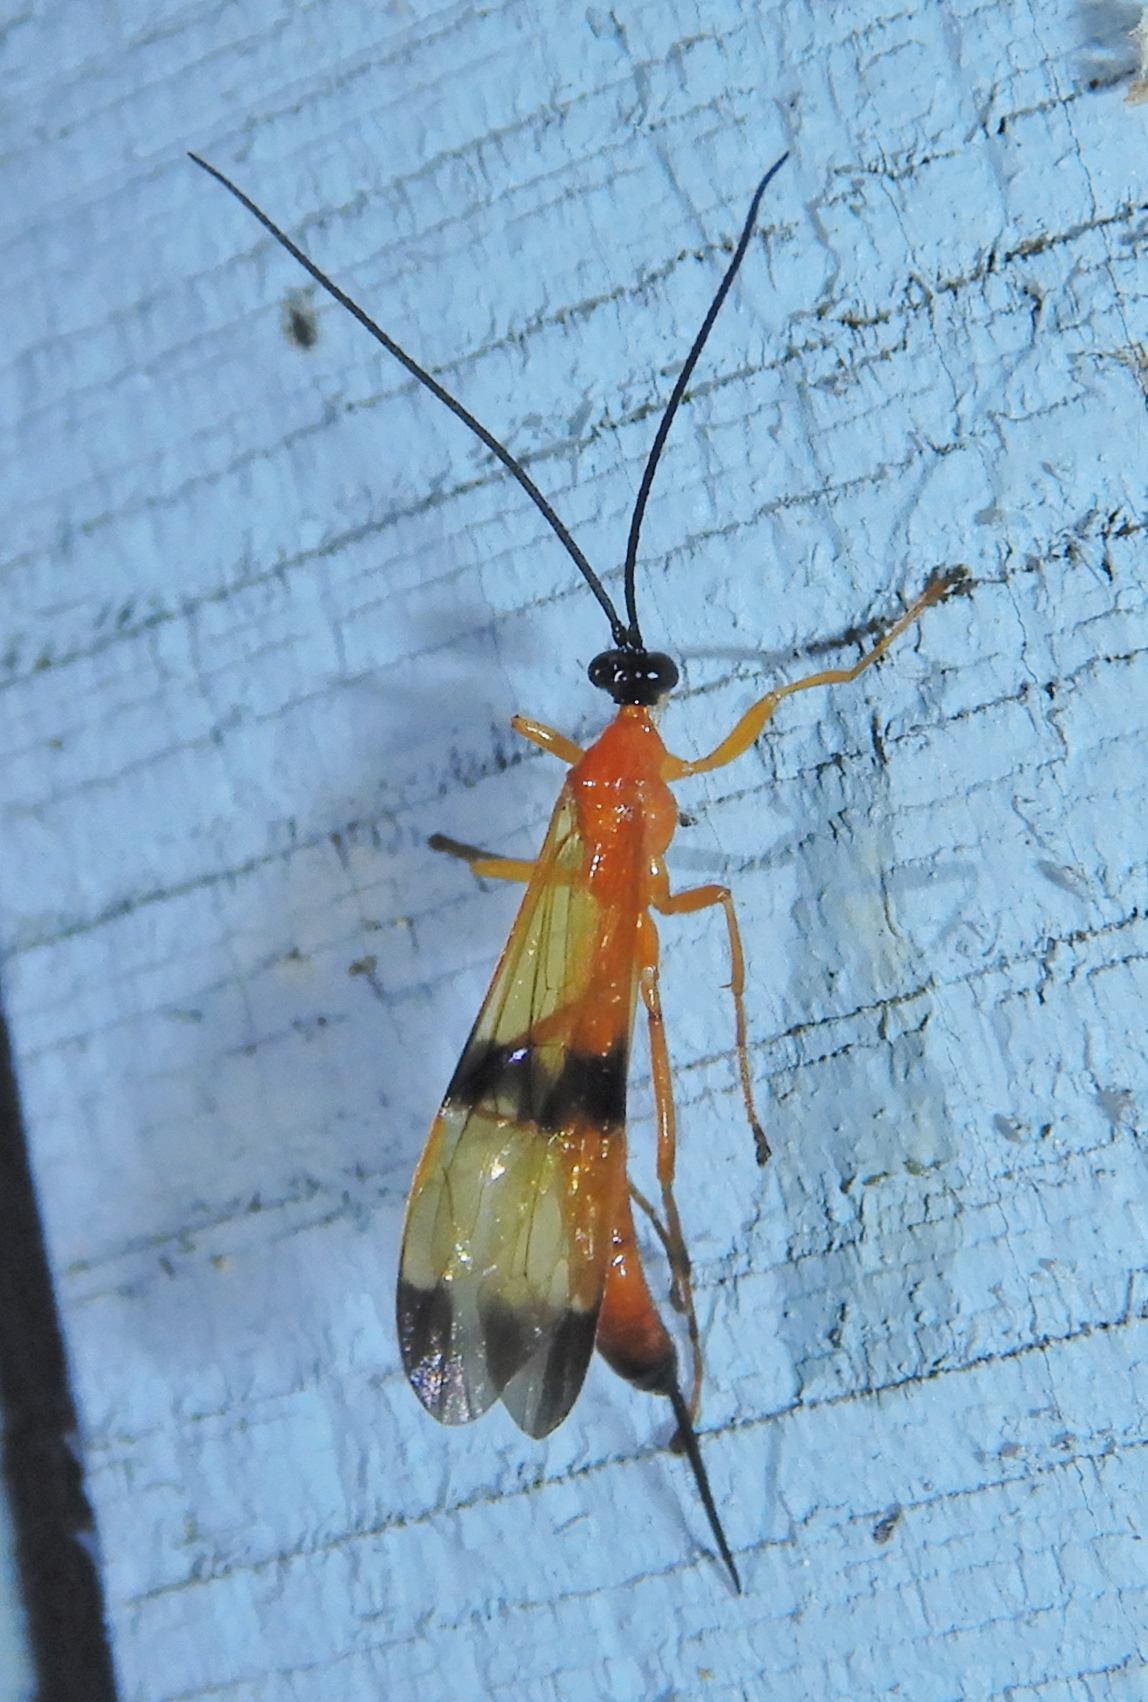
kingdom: Animalia
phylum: Arthropoda
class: Insecta
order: Hymenoptera
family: Ichneumonidae
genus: Acrotaphus
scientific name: Acrotaphus wiltii
